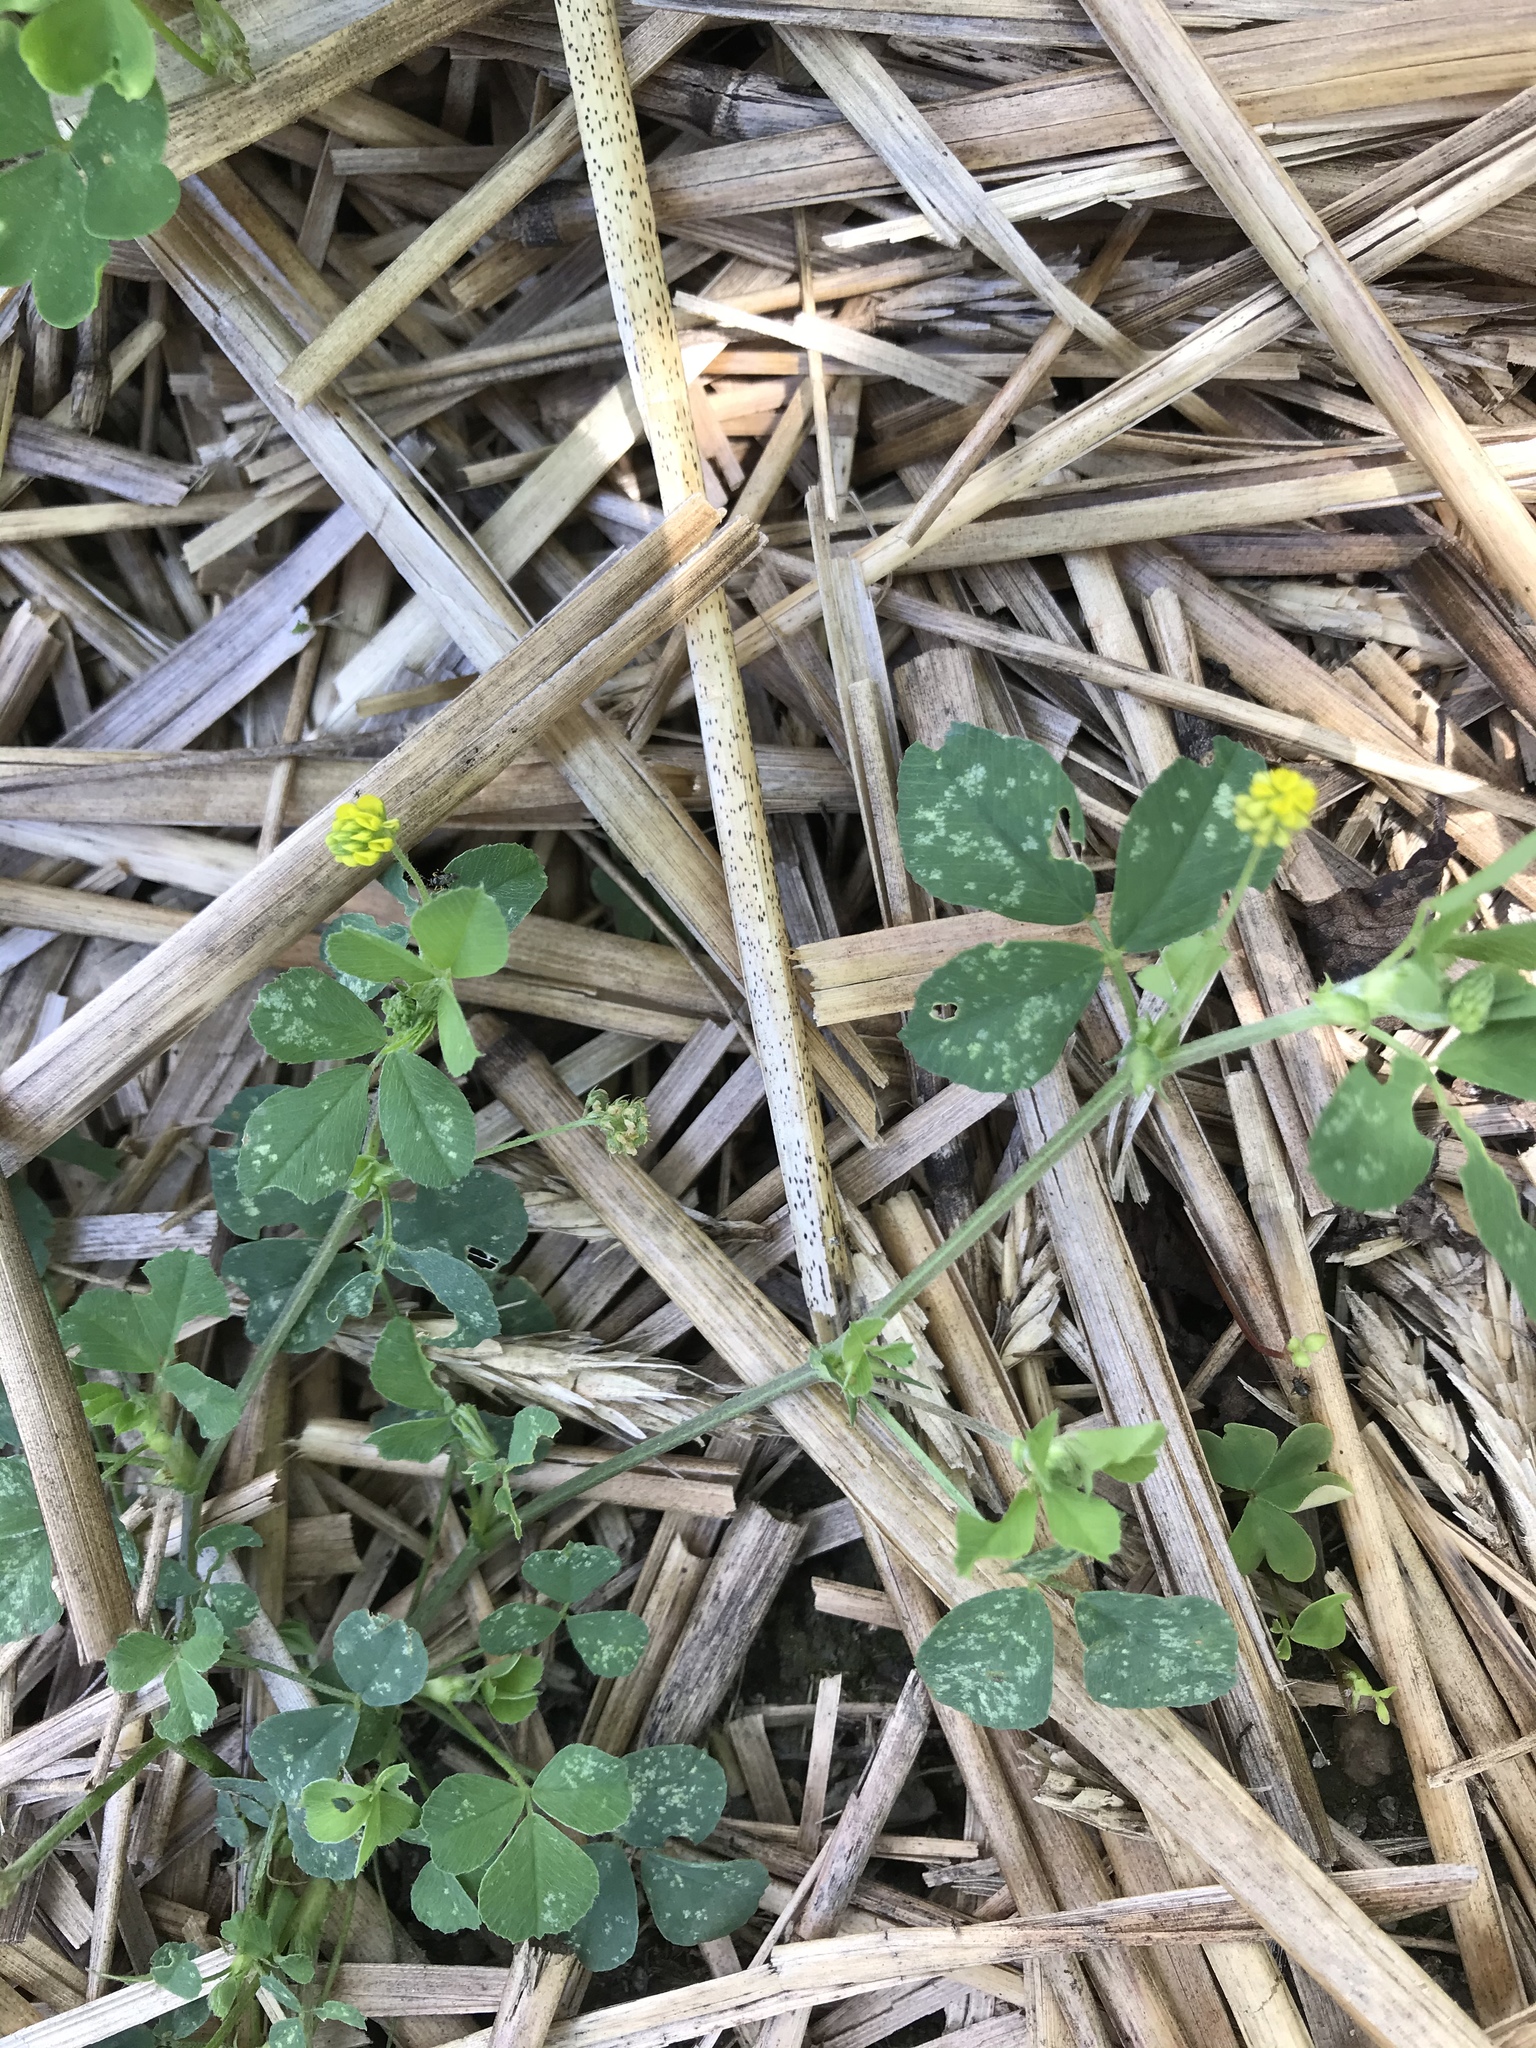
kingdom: Plantae
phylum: Tracheophyta
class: Magnoliopsida
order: Fabales
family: Fabaceae
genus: Medicago
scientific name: Medicago lupulina
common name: Black medick
